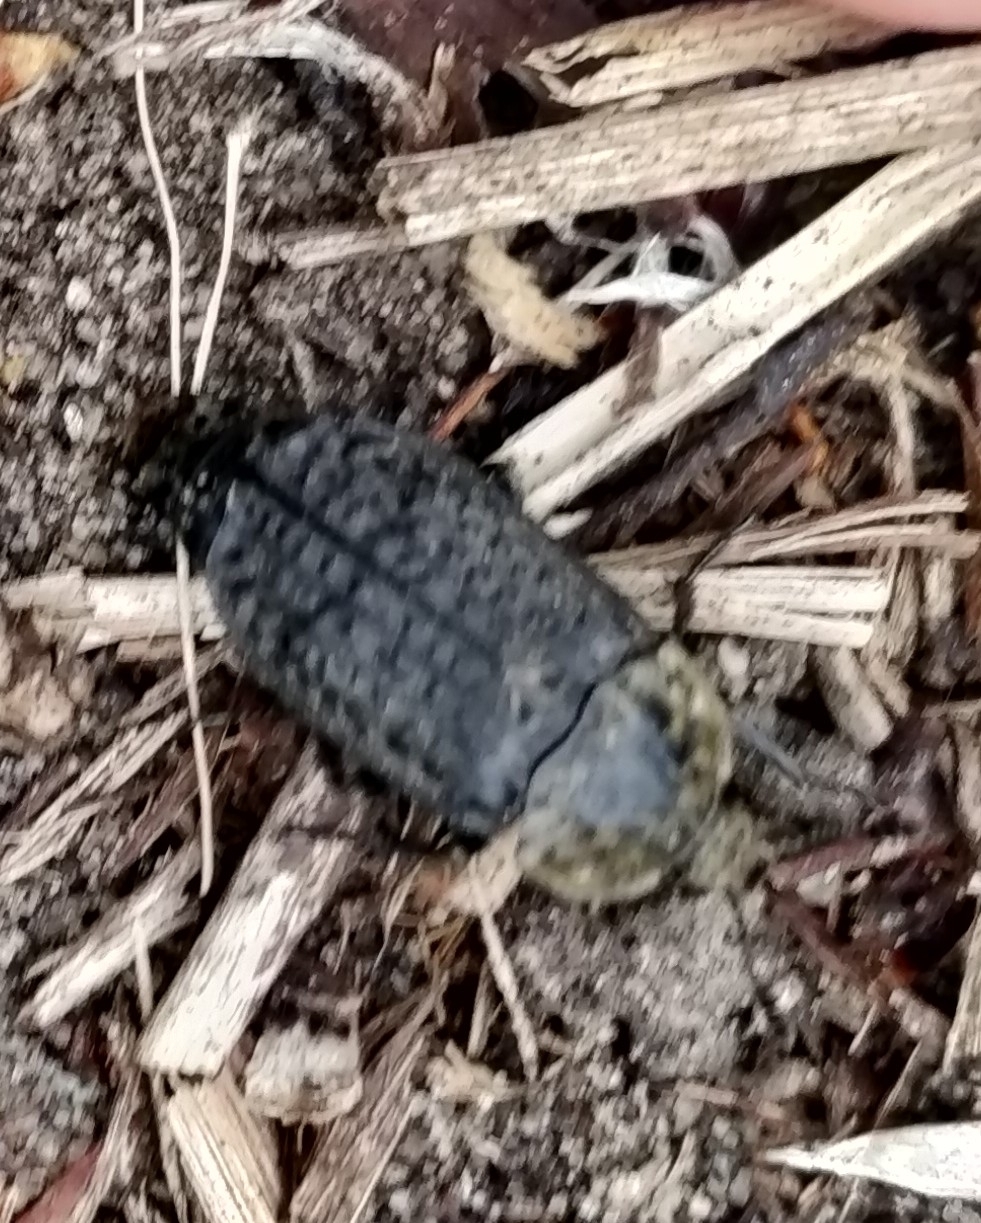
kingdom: Animalia
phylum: Arthropoda
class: Insecta
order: Coleoptera
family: Staphylinidae
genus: Thanatophilus
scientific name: Thanatophilus lapponicus
